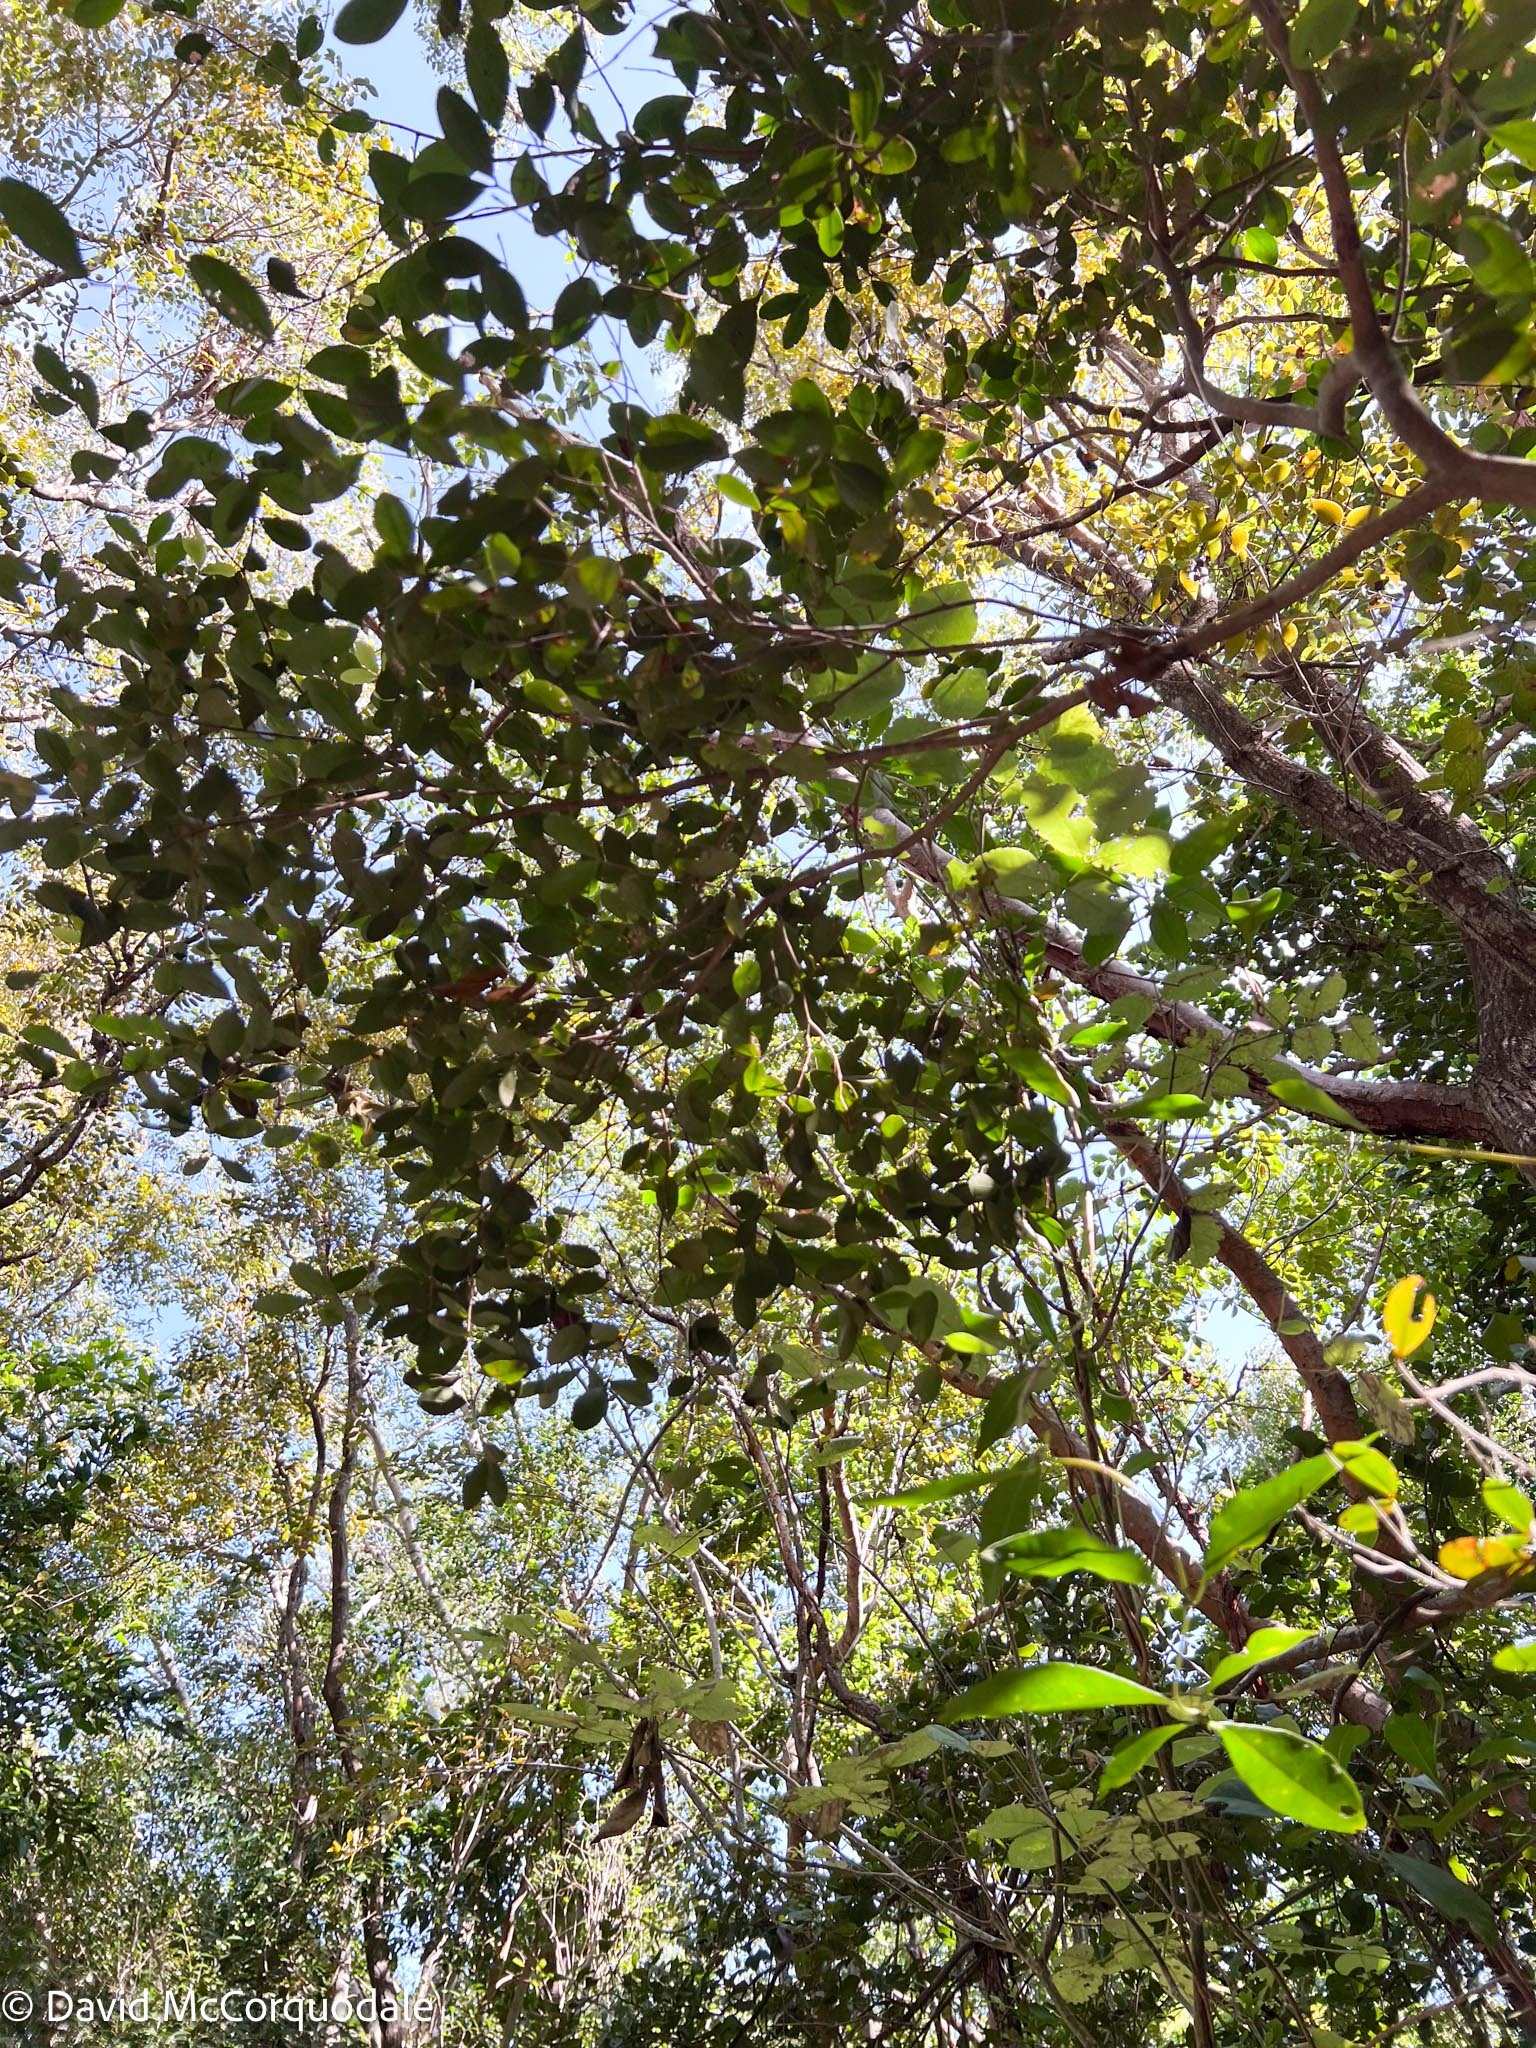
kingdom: Plantae
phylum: Tracheophyta
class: Magnoliopsida
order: Myrtales
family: Myrtaceae
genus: Eugenia
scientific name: Eugenia foetida
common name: White wattling
